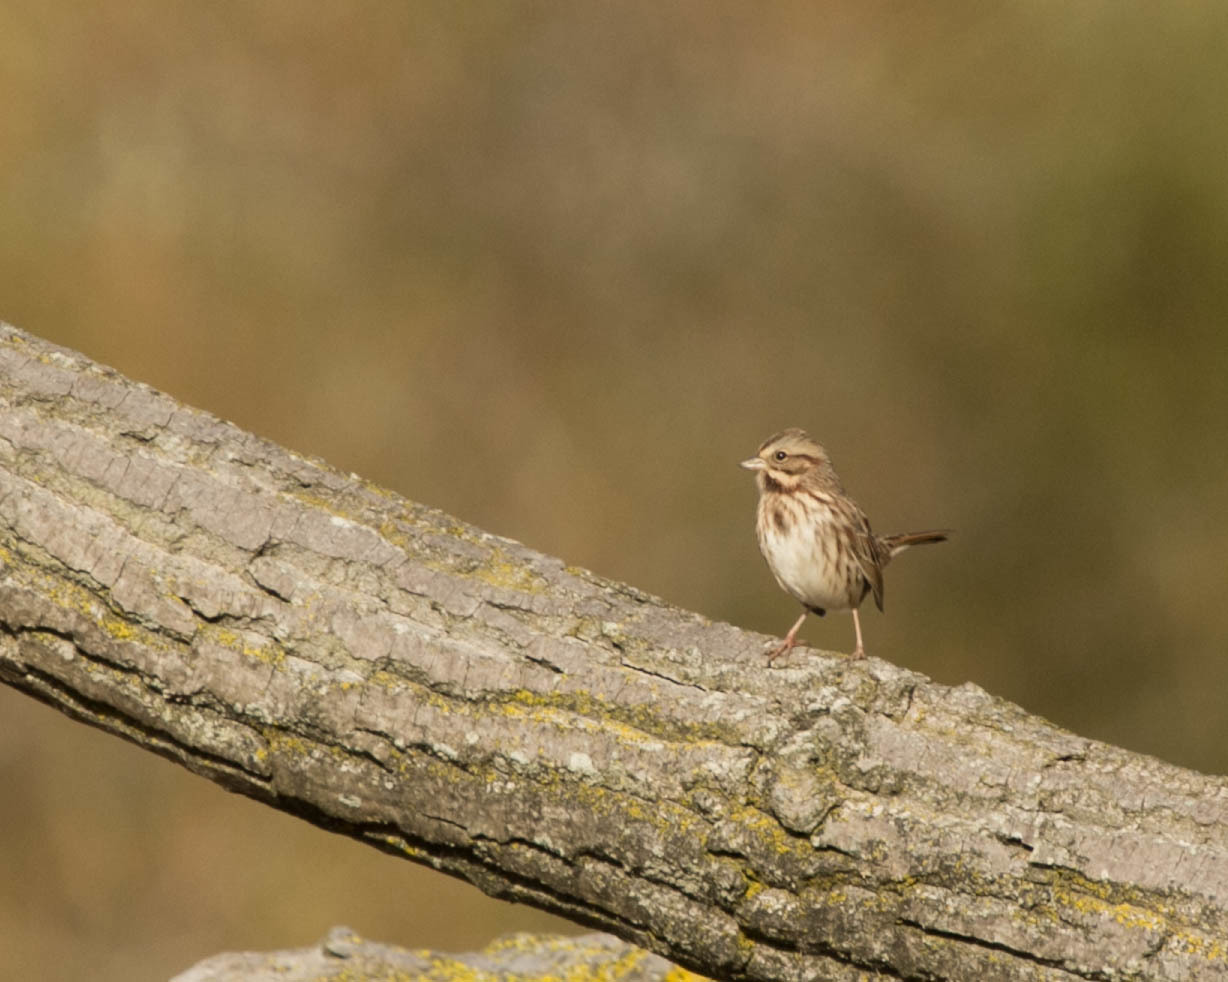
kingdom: Animalia
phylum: Chordata
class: Aves
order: Passeriformes
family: Passerellidae
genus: Melospiza
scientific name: Melospiza melodia
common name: Song sparrow
